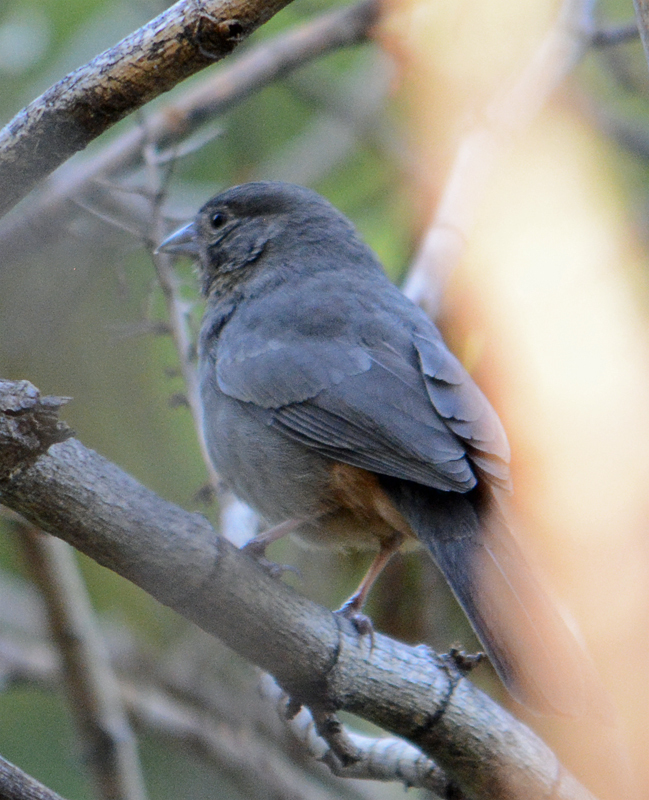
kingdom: Animalia
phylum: Chordata
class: Aves
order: Passeriformes
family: Passerellidae
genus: Melozone
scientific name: Melozone fusca
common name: Canyon towhee
